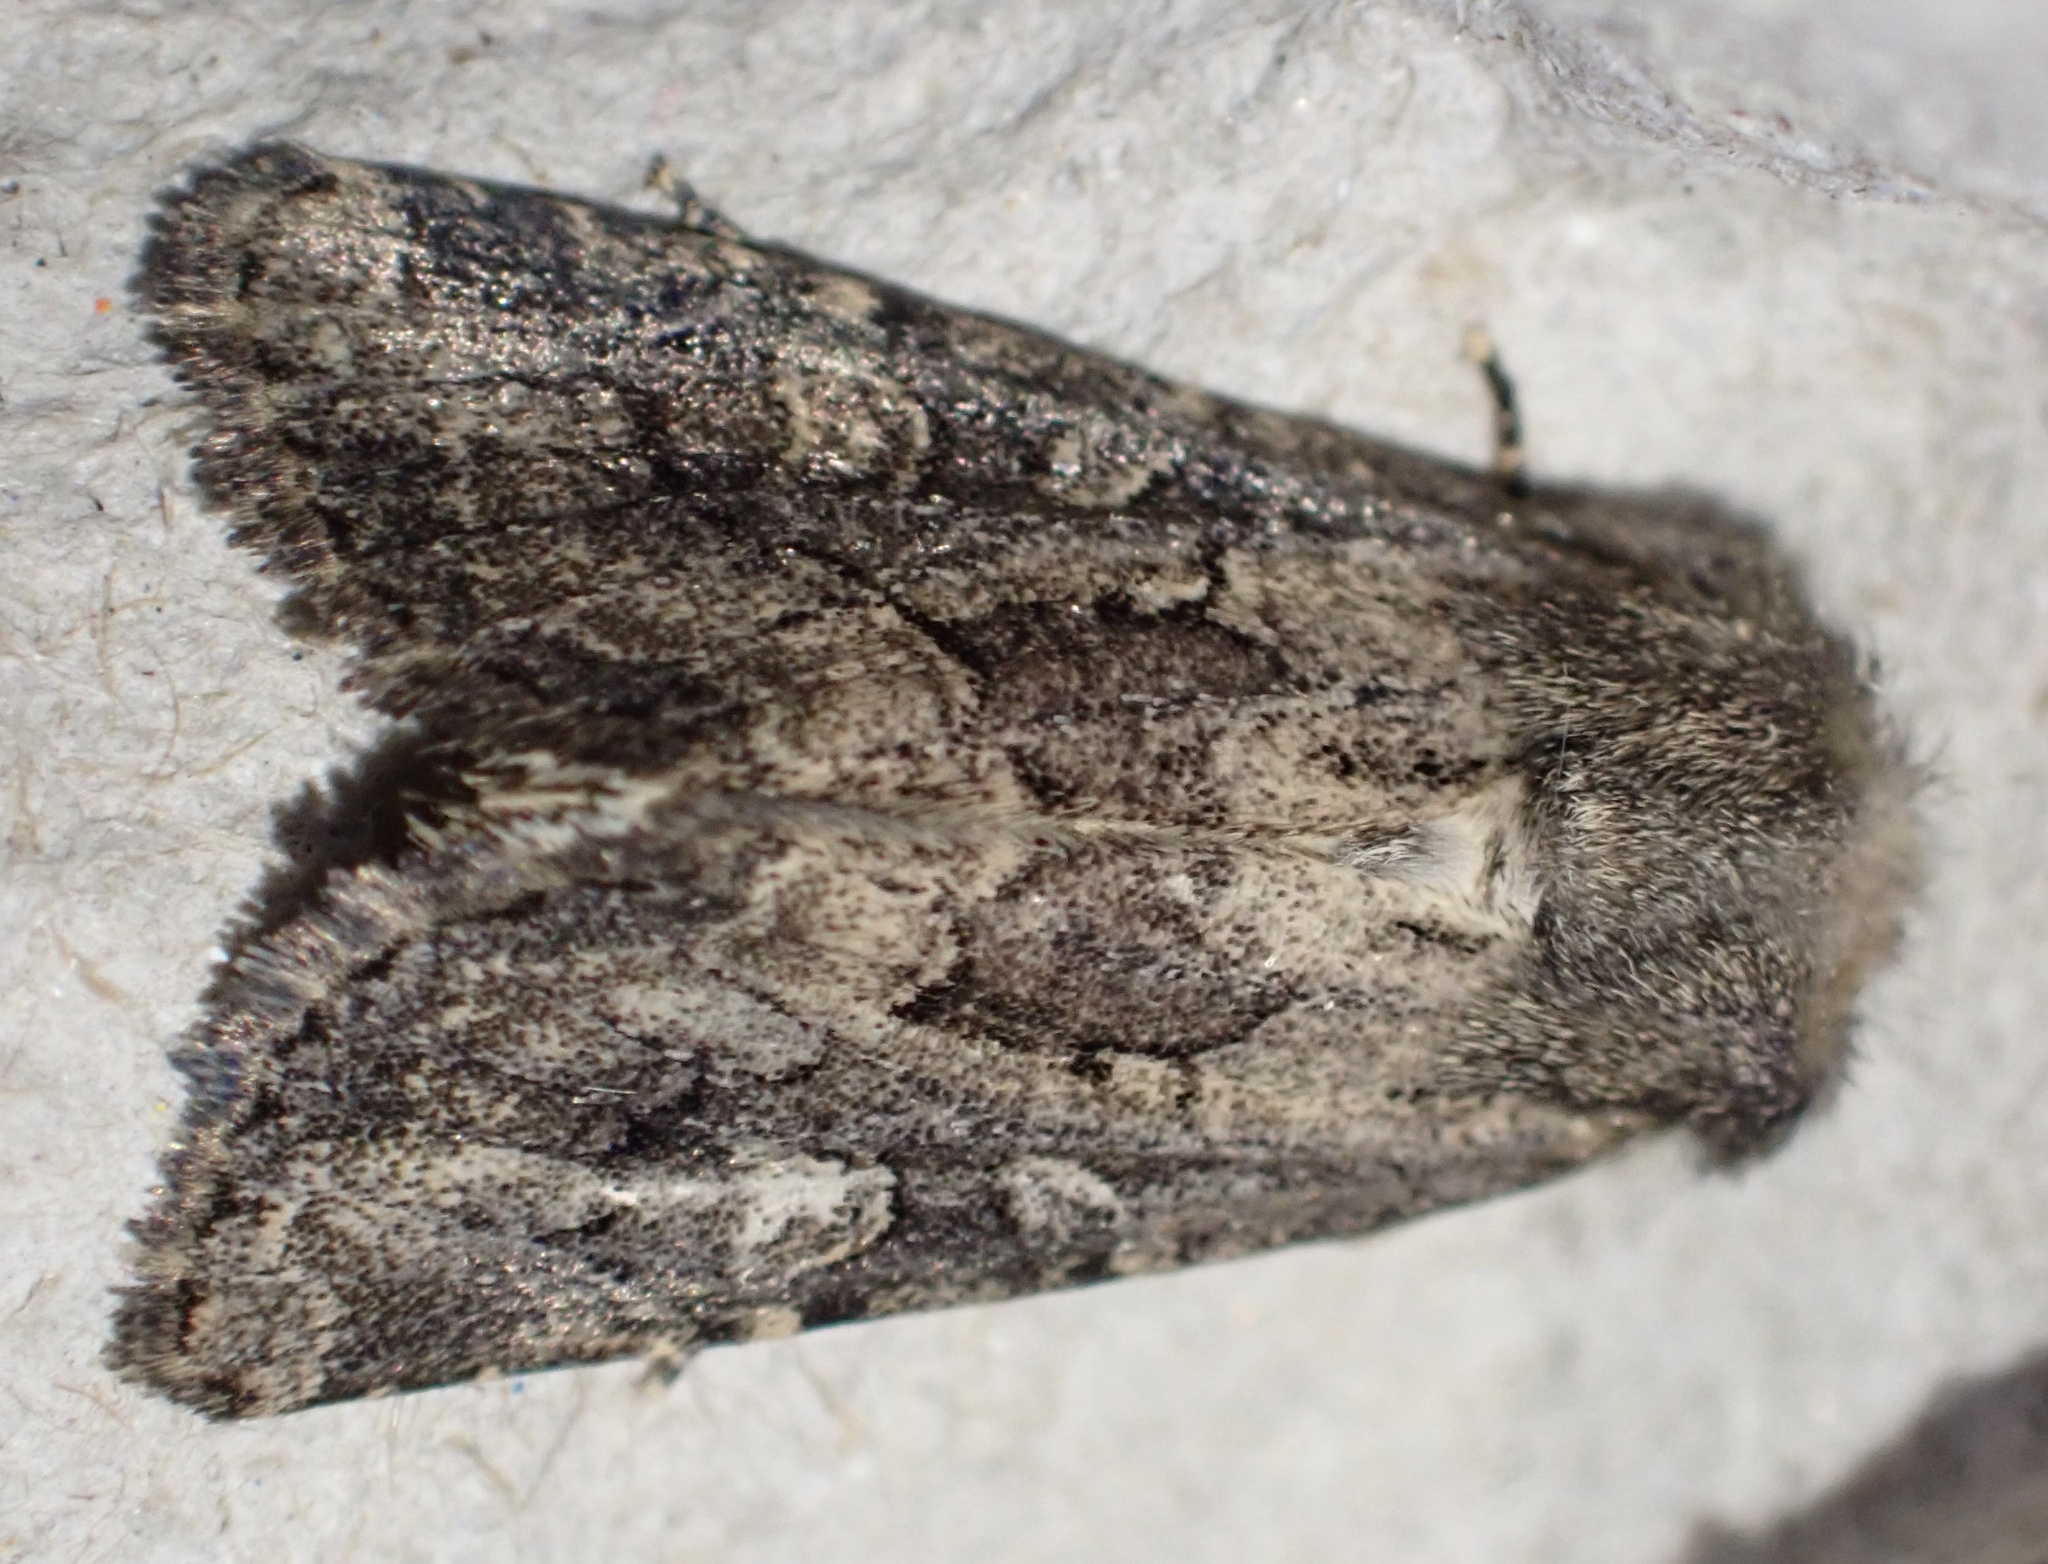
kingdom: Animalia
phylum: Arthropoda
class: Insecta
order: Lepidoptera
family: Noctuidae
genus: Luperina
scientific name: Luperina testacea
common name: Flounced rustic
